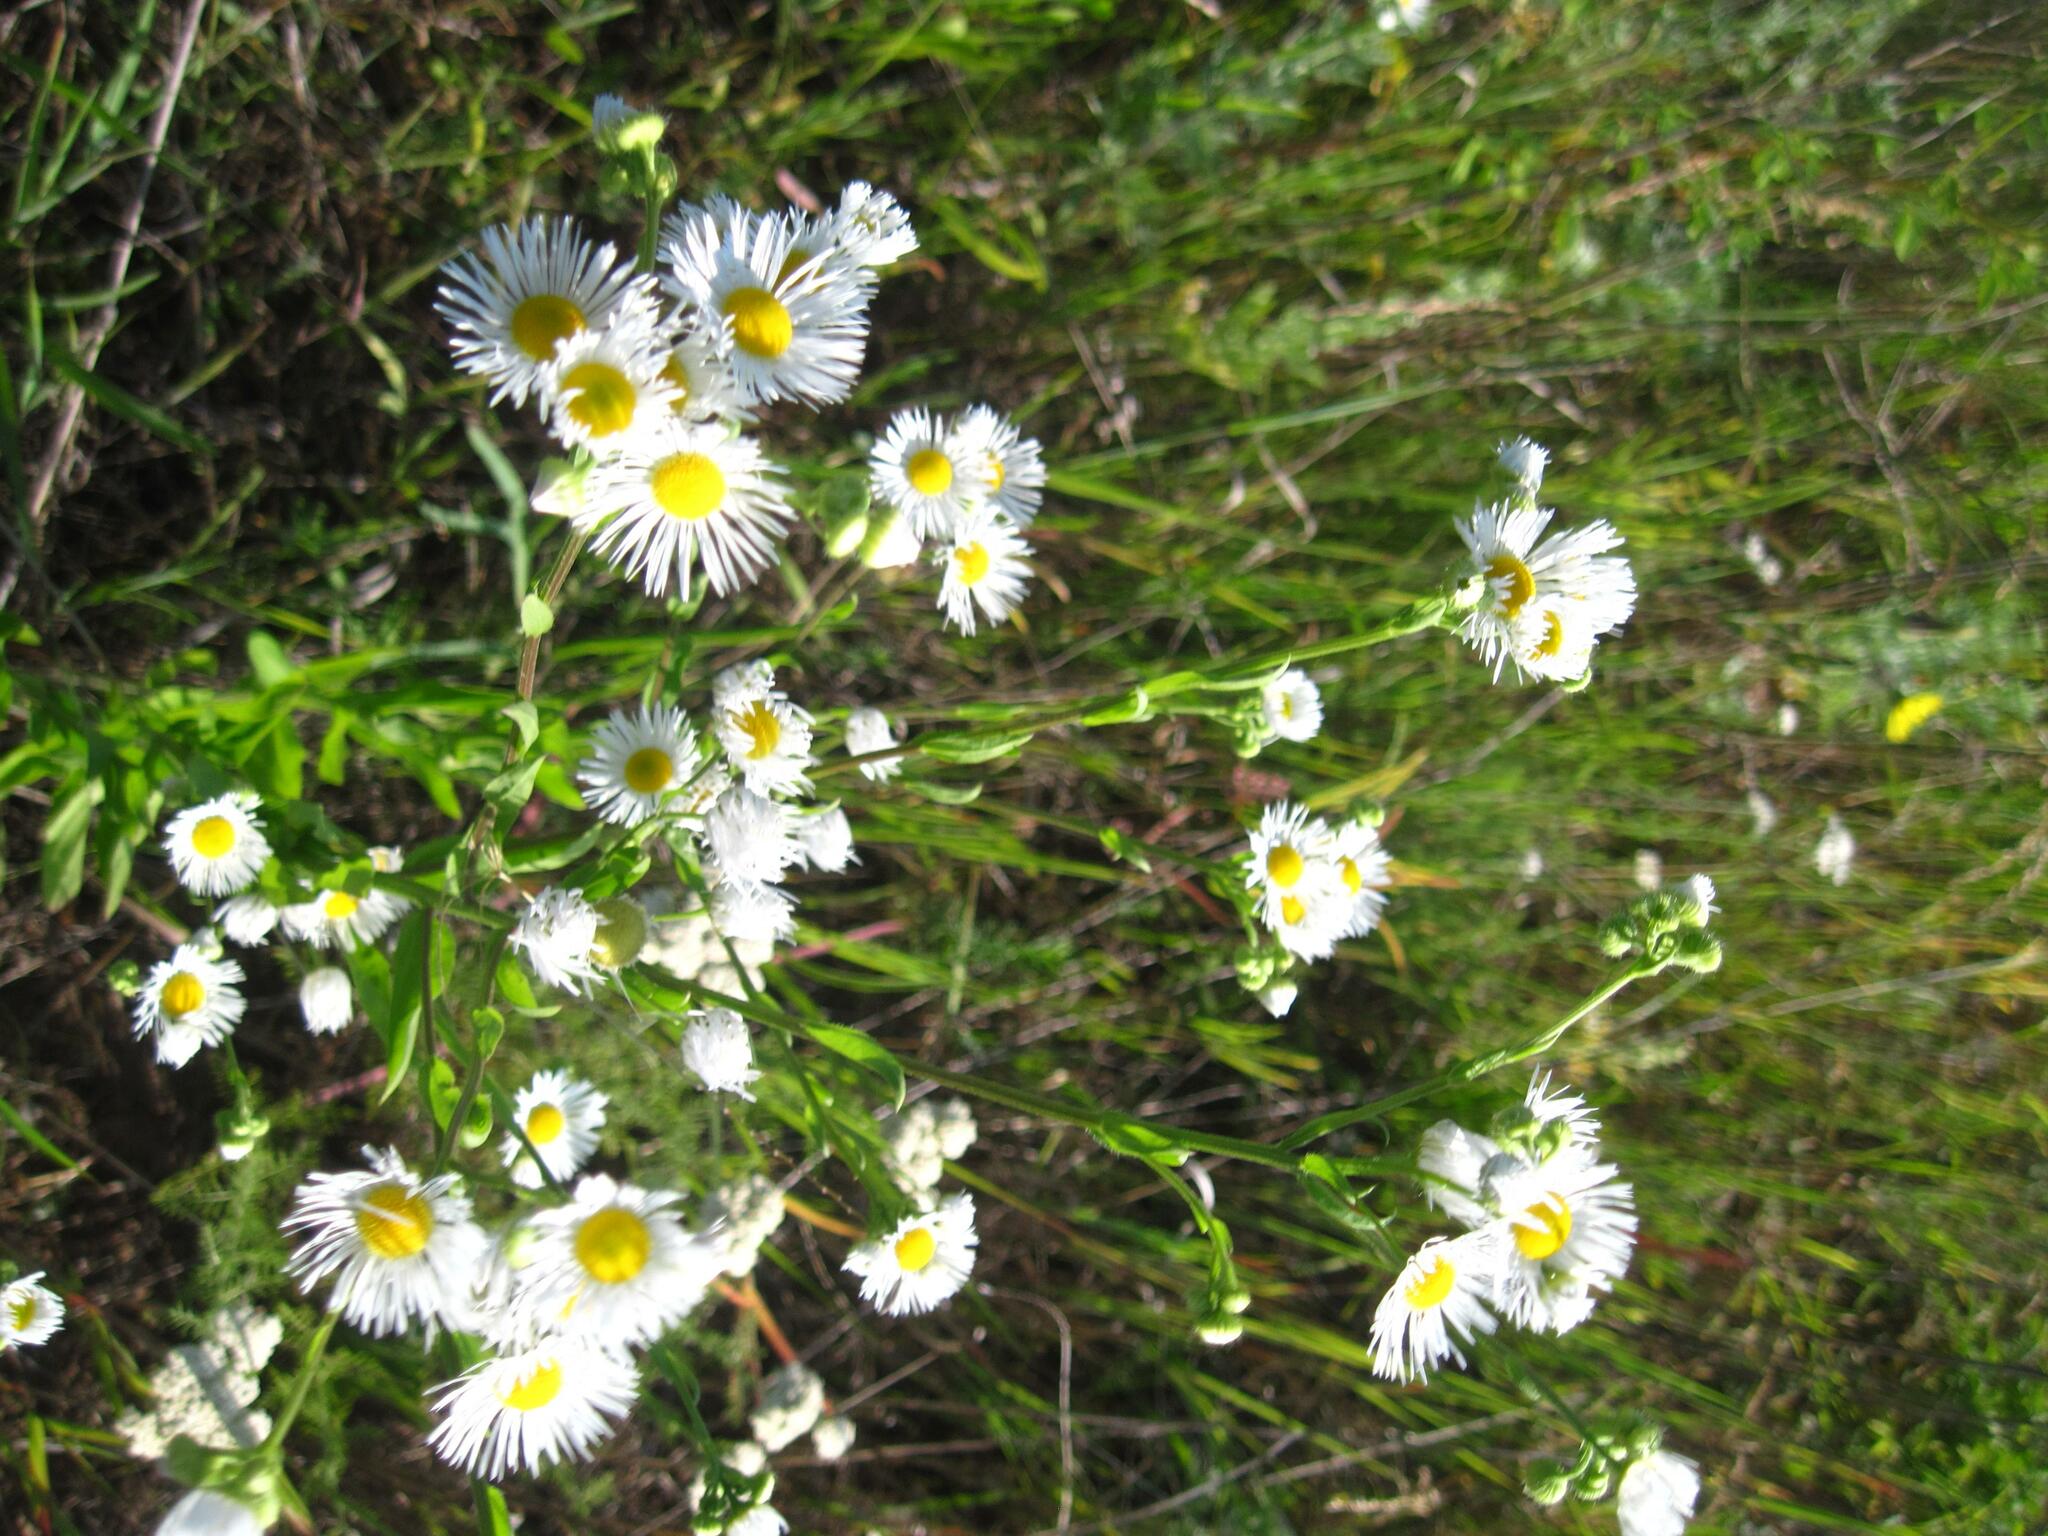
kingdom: Plantae
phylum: Tracheophyta
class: Magnoliopsida
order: Asterales
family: Asteraceae
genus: Erigeron
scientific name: Erigeron annuus
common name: Tall fleabane
